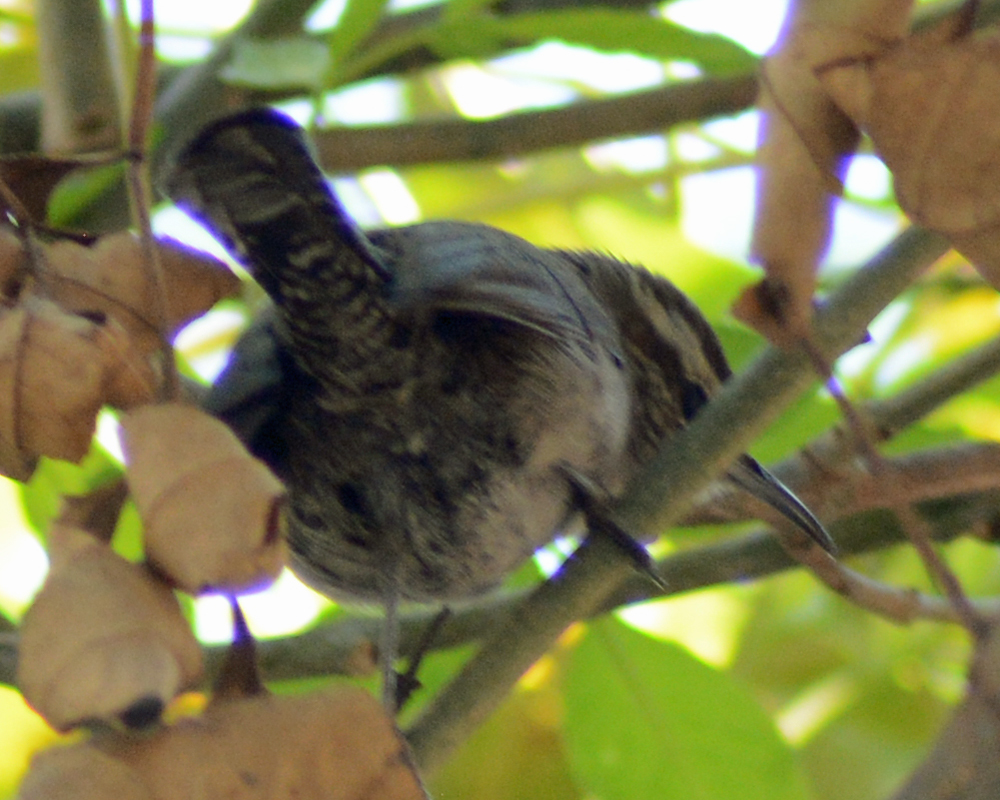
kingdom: Animalia
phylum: Chordata
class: Aves
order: Passeriformes
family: Troglodytidae
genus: Thryomanes
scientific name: Thryomanes bewickii
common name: Bewick's wren
